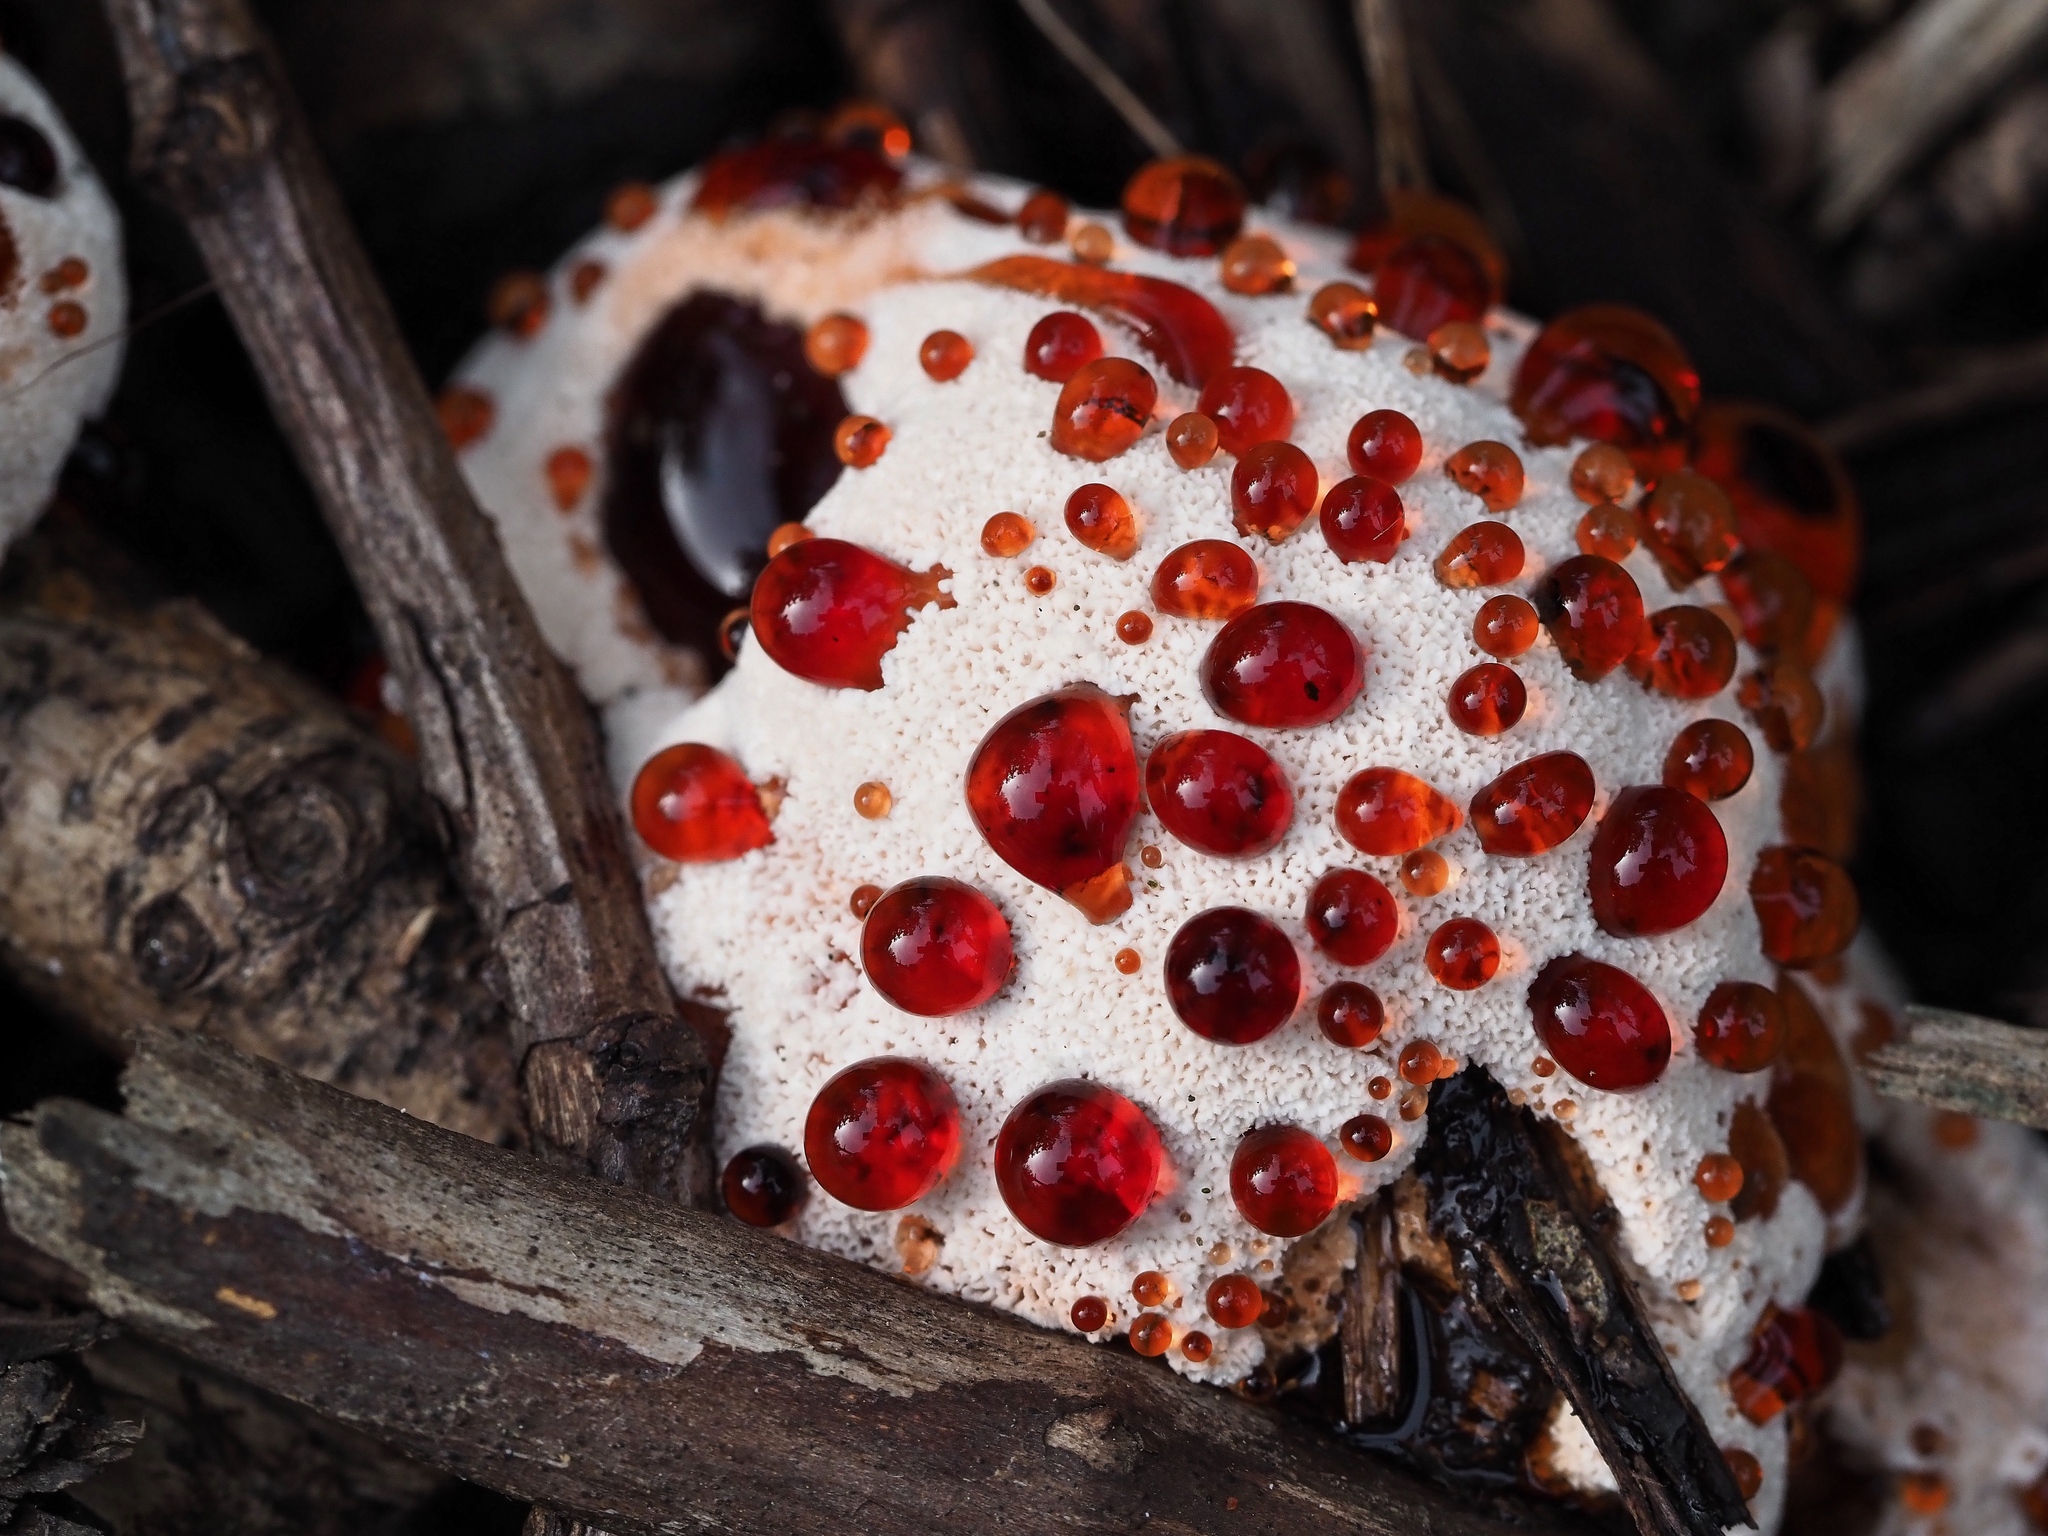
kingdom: Fungi
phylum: Basidiomycota
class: Agaricomycetes
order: Polyporales
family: Podoscyphaceae
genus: Abortiporus
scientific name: Abortiporus biennis
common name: Blushing rosette
